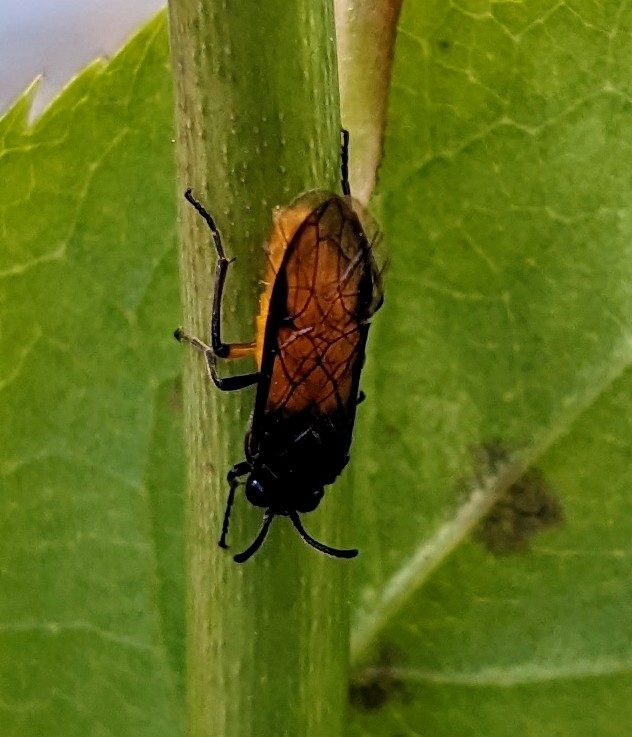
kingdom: Animalia
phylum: Arthropoda
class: Insecta
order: Hymenoptera
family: Argidae
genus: Arge
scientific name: Arge pagana
